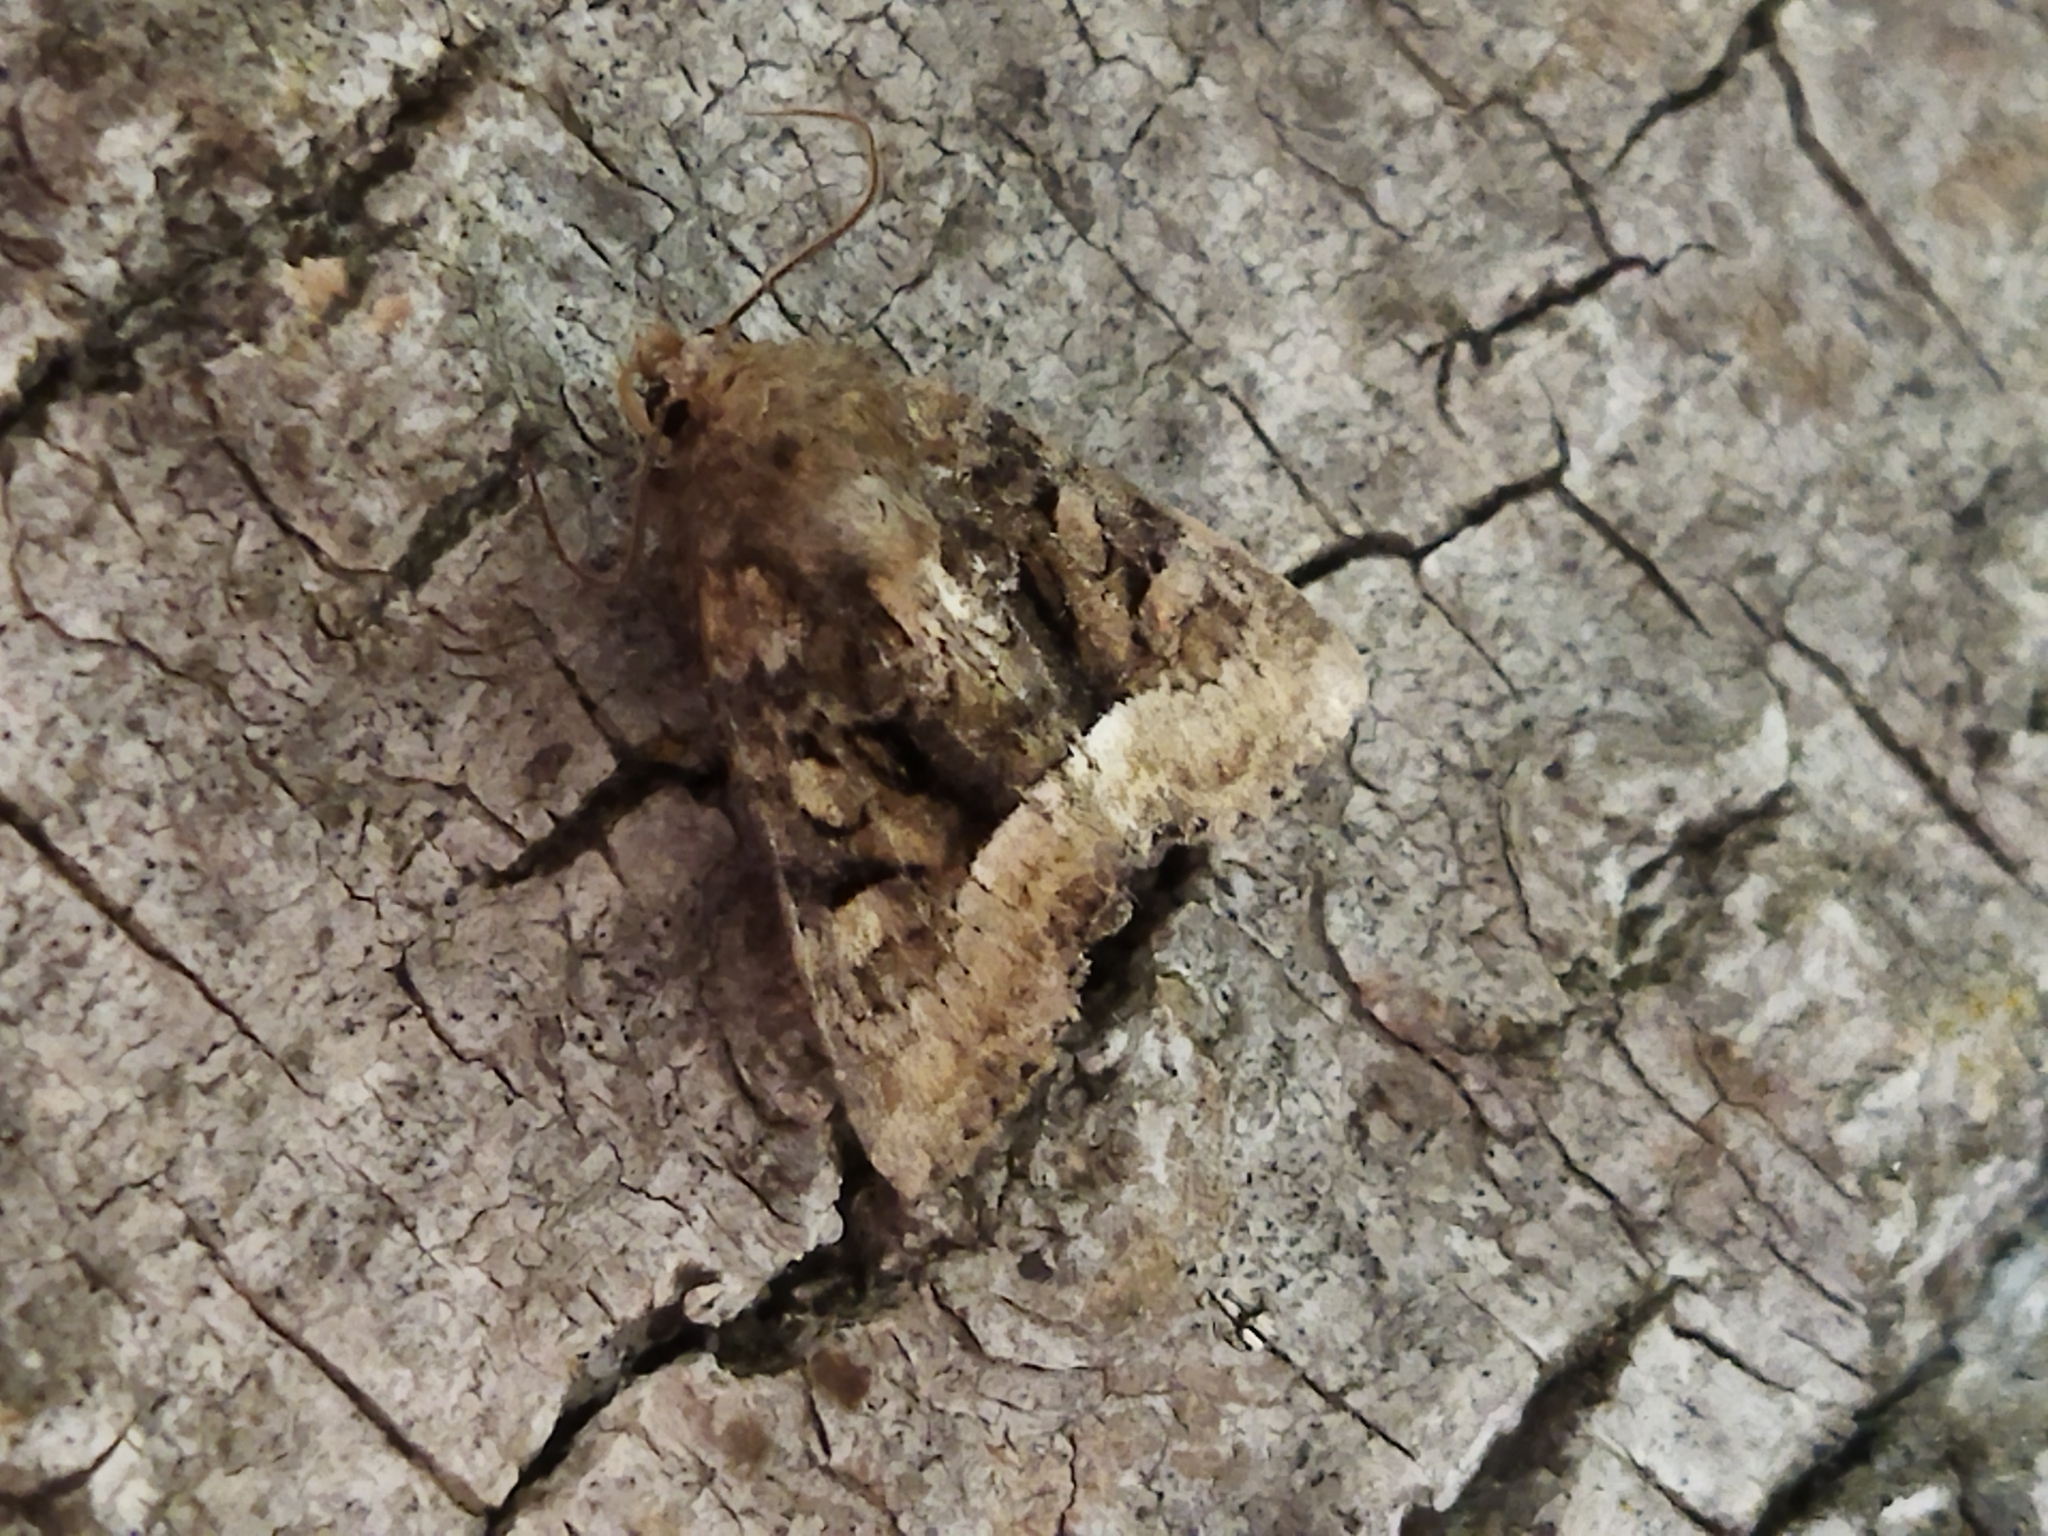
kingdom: Animalia
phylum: Arthropoda
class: Insecta
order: Lepidoptera
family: Noctuidae
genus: Oligia
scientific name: Oligia
